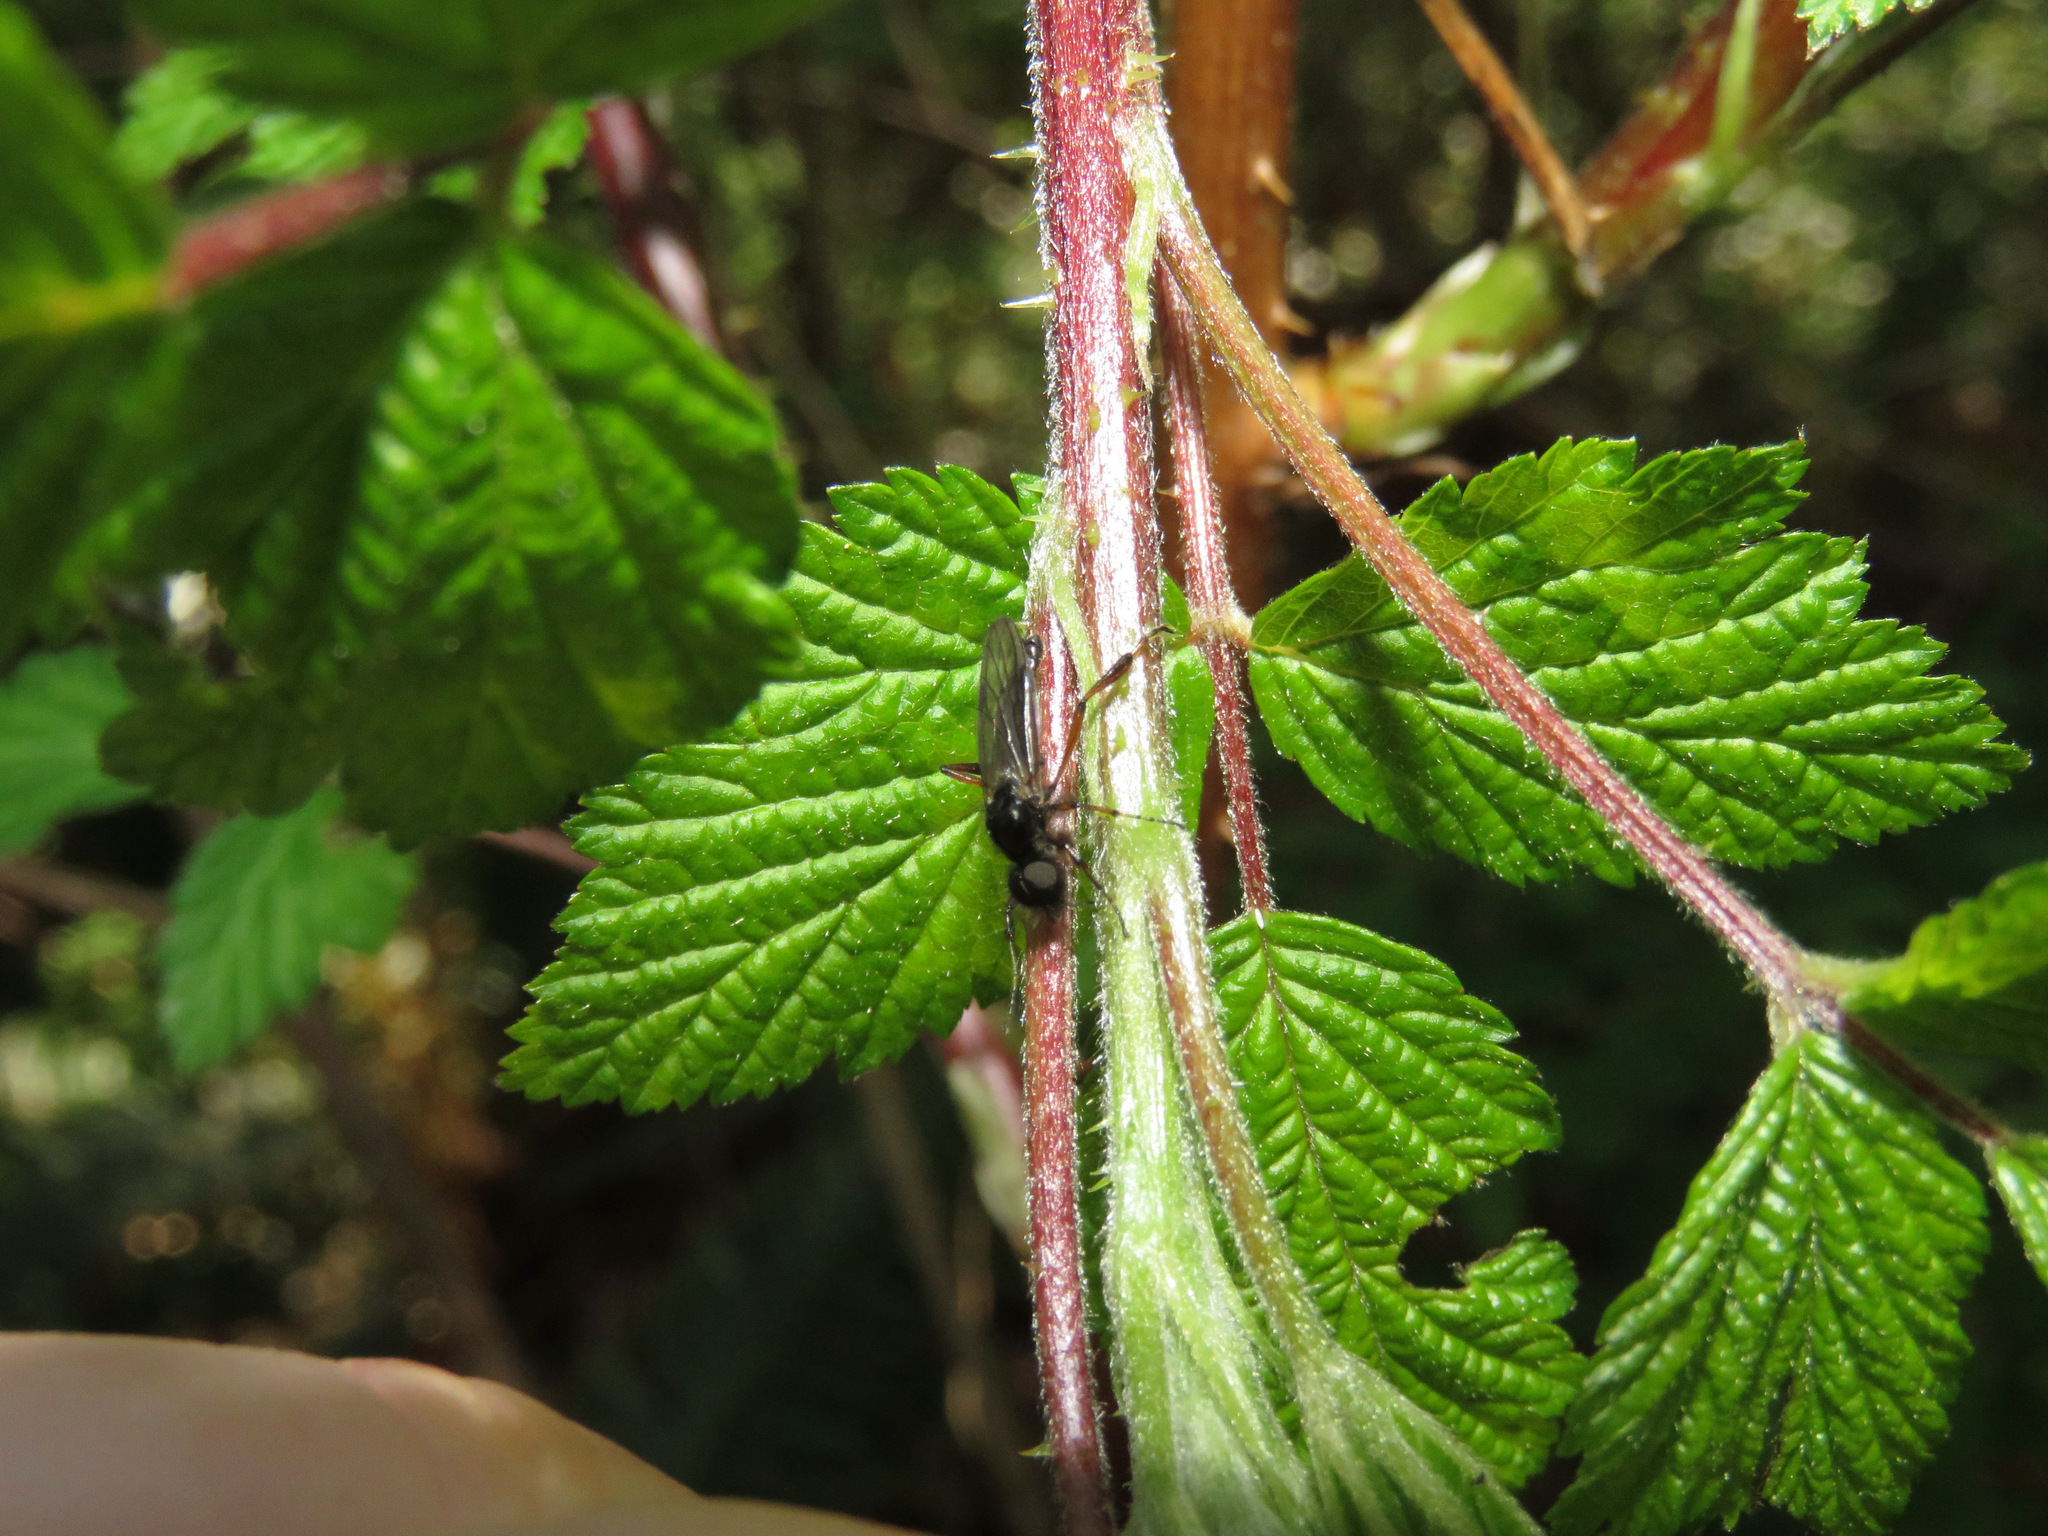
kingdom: Animalia
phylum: Arthropoda
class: Insecta
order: Diptera
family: Bibionidae
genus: Bibio
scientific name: Bibio
